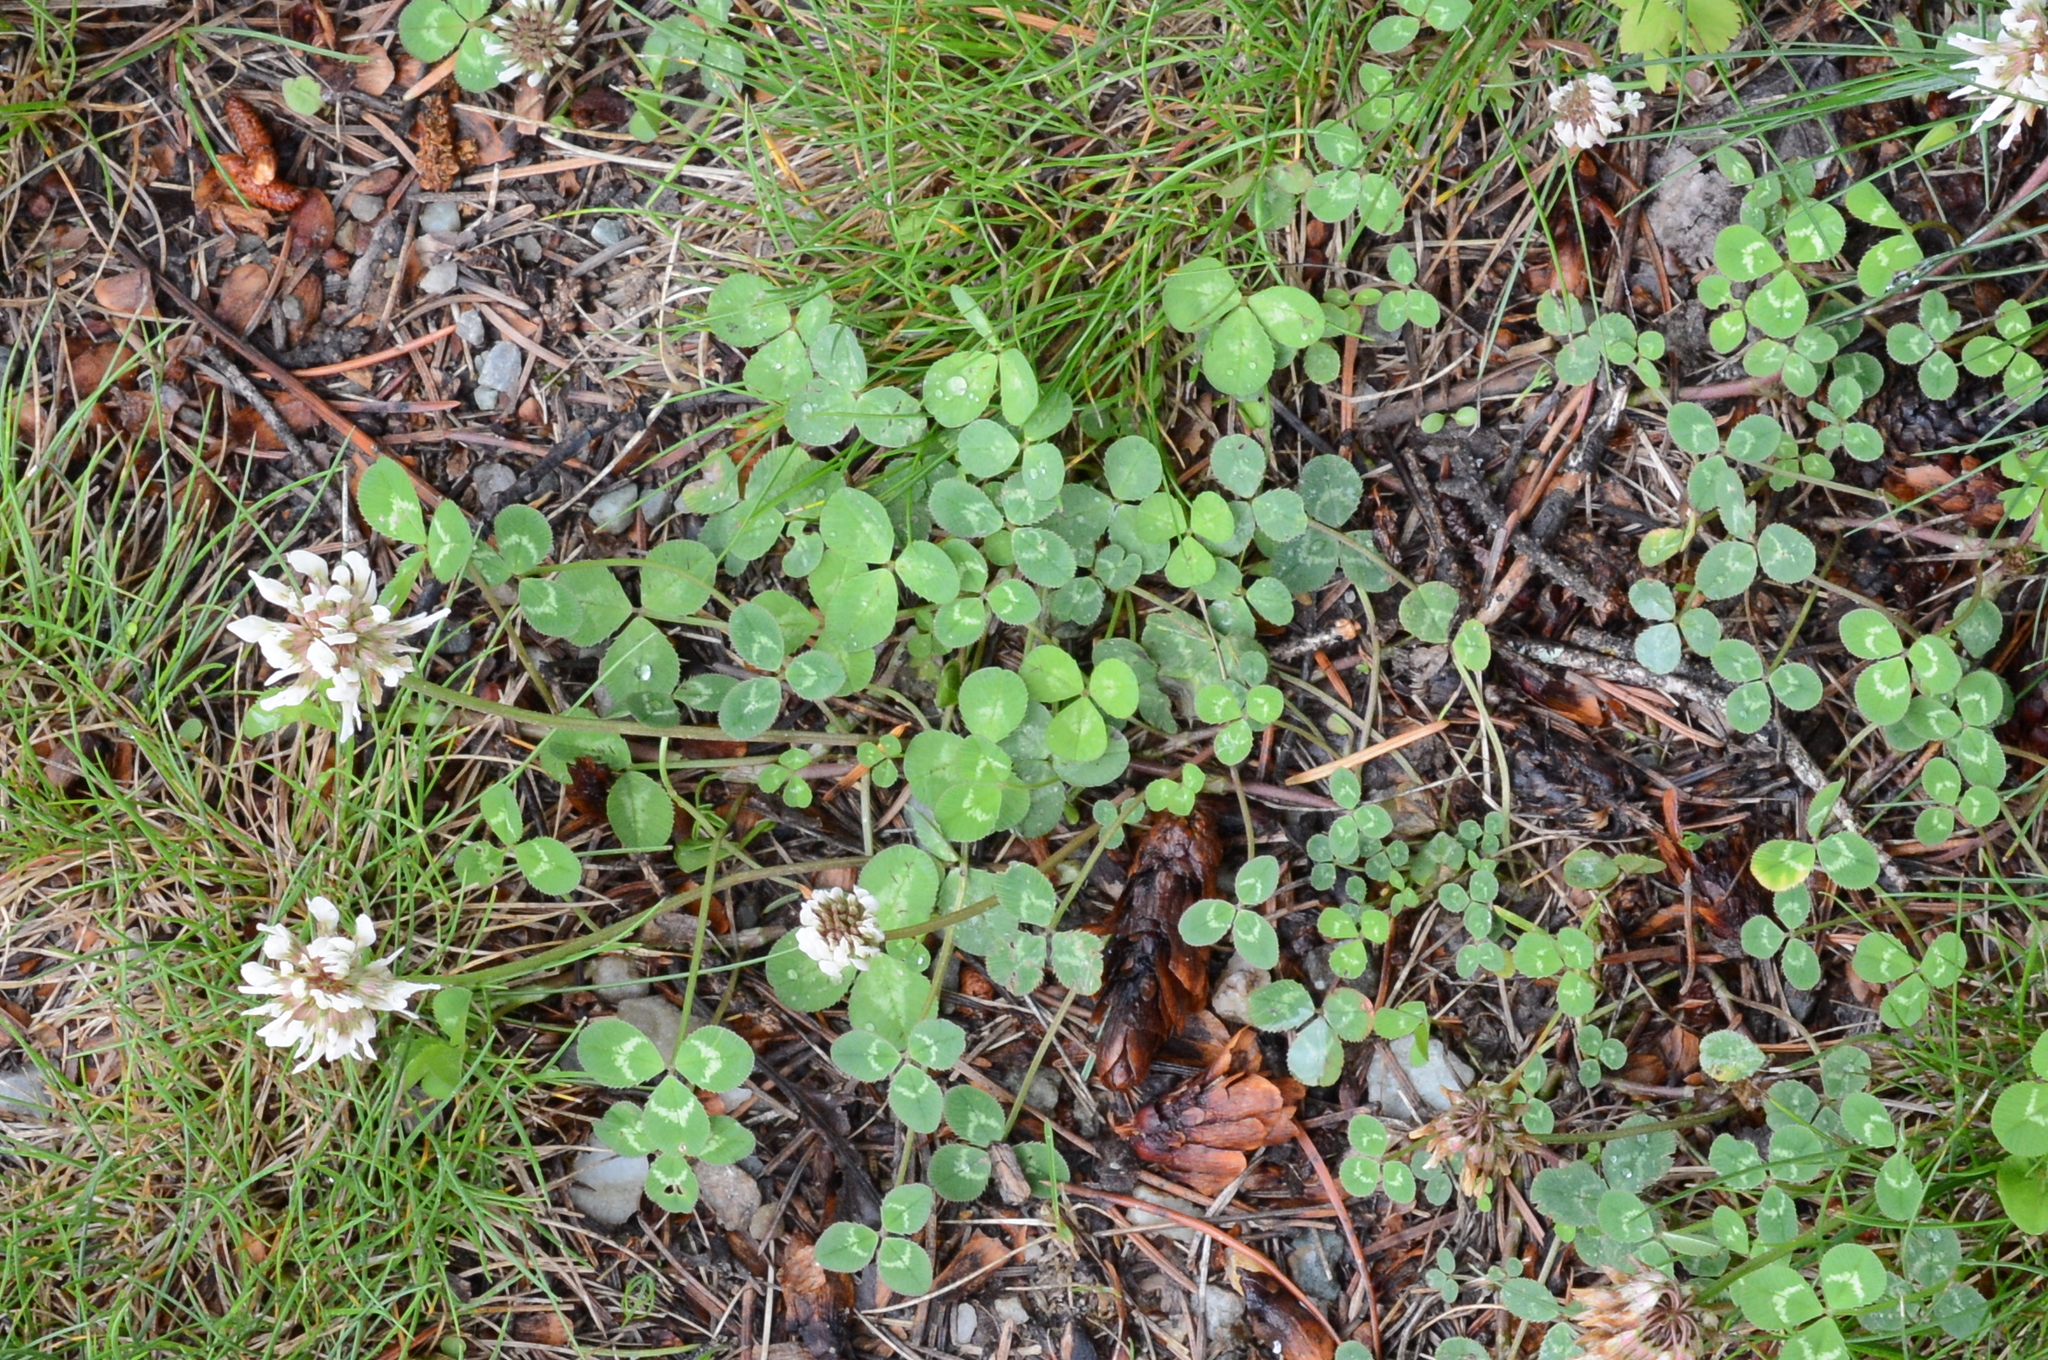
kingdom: Plantae
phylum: Tracheophyta
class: Magnoliopsida
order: Fabales
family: Fabaceae
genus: Trifolium
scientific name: Trifolium repens
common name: White clover
